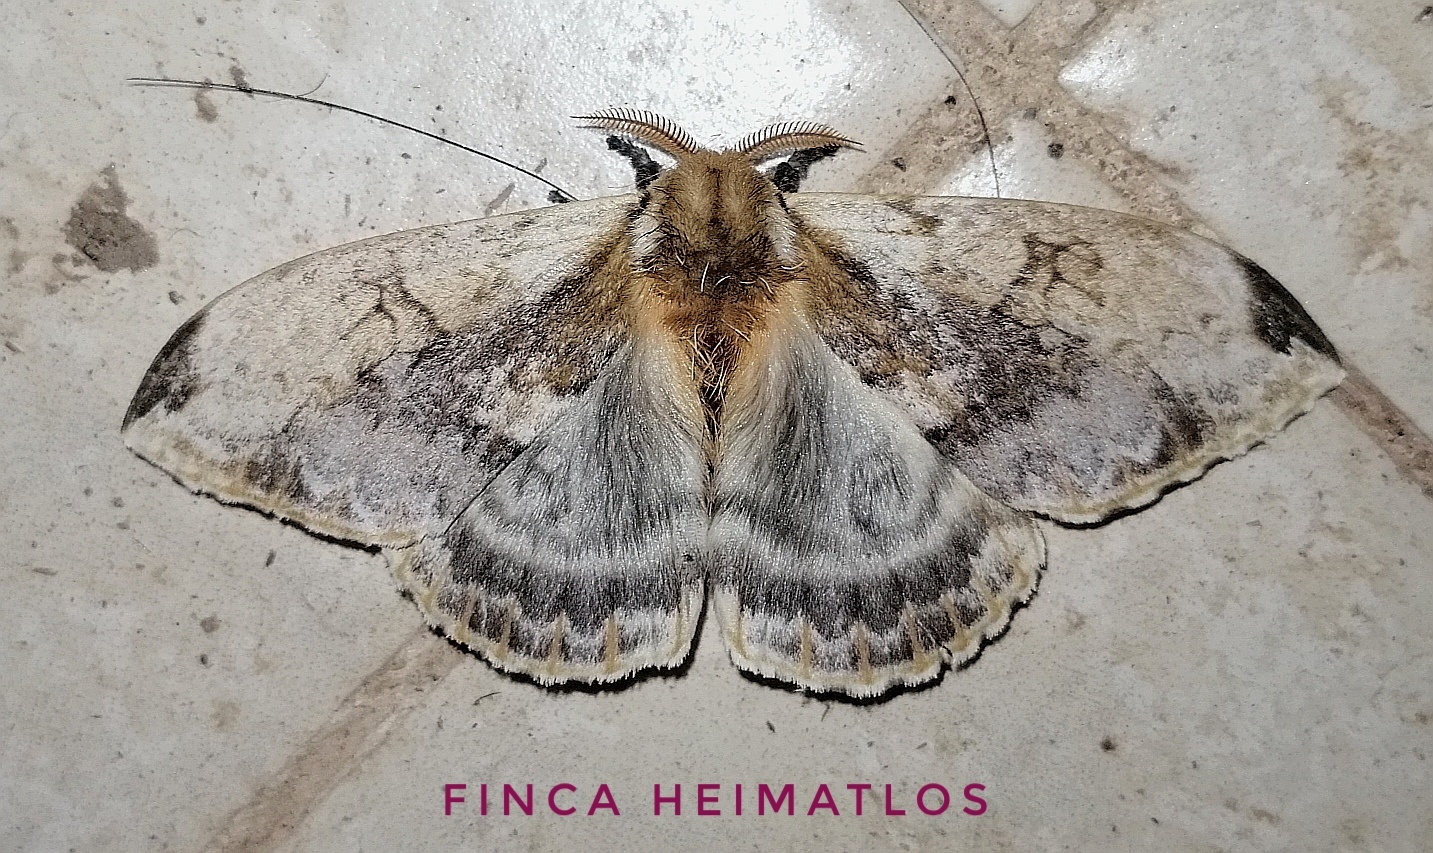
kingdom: Animalia
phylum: Arthropoda
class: Insecta
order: Lepidoptera
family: Saturniidae
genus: Molippa
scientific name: Molippa simillima
